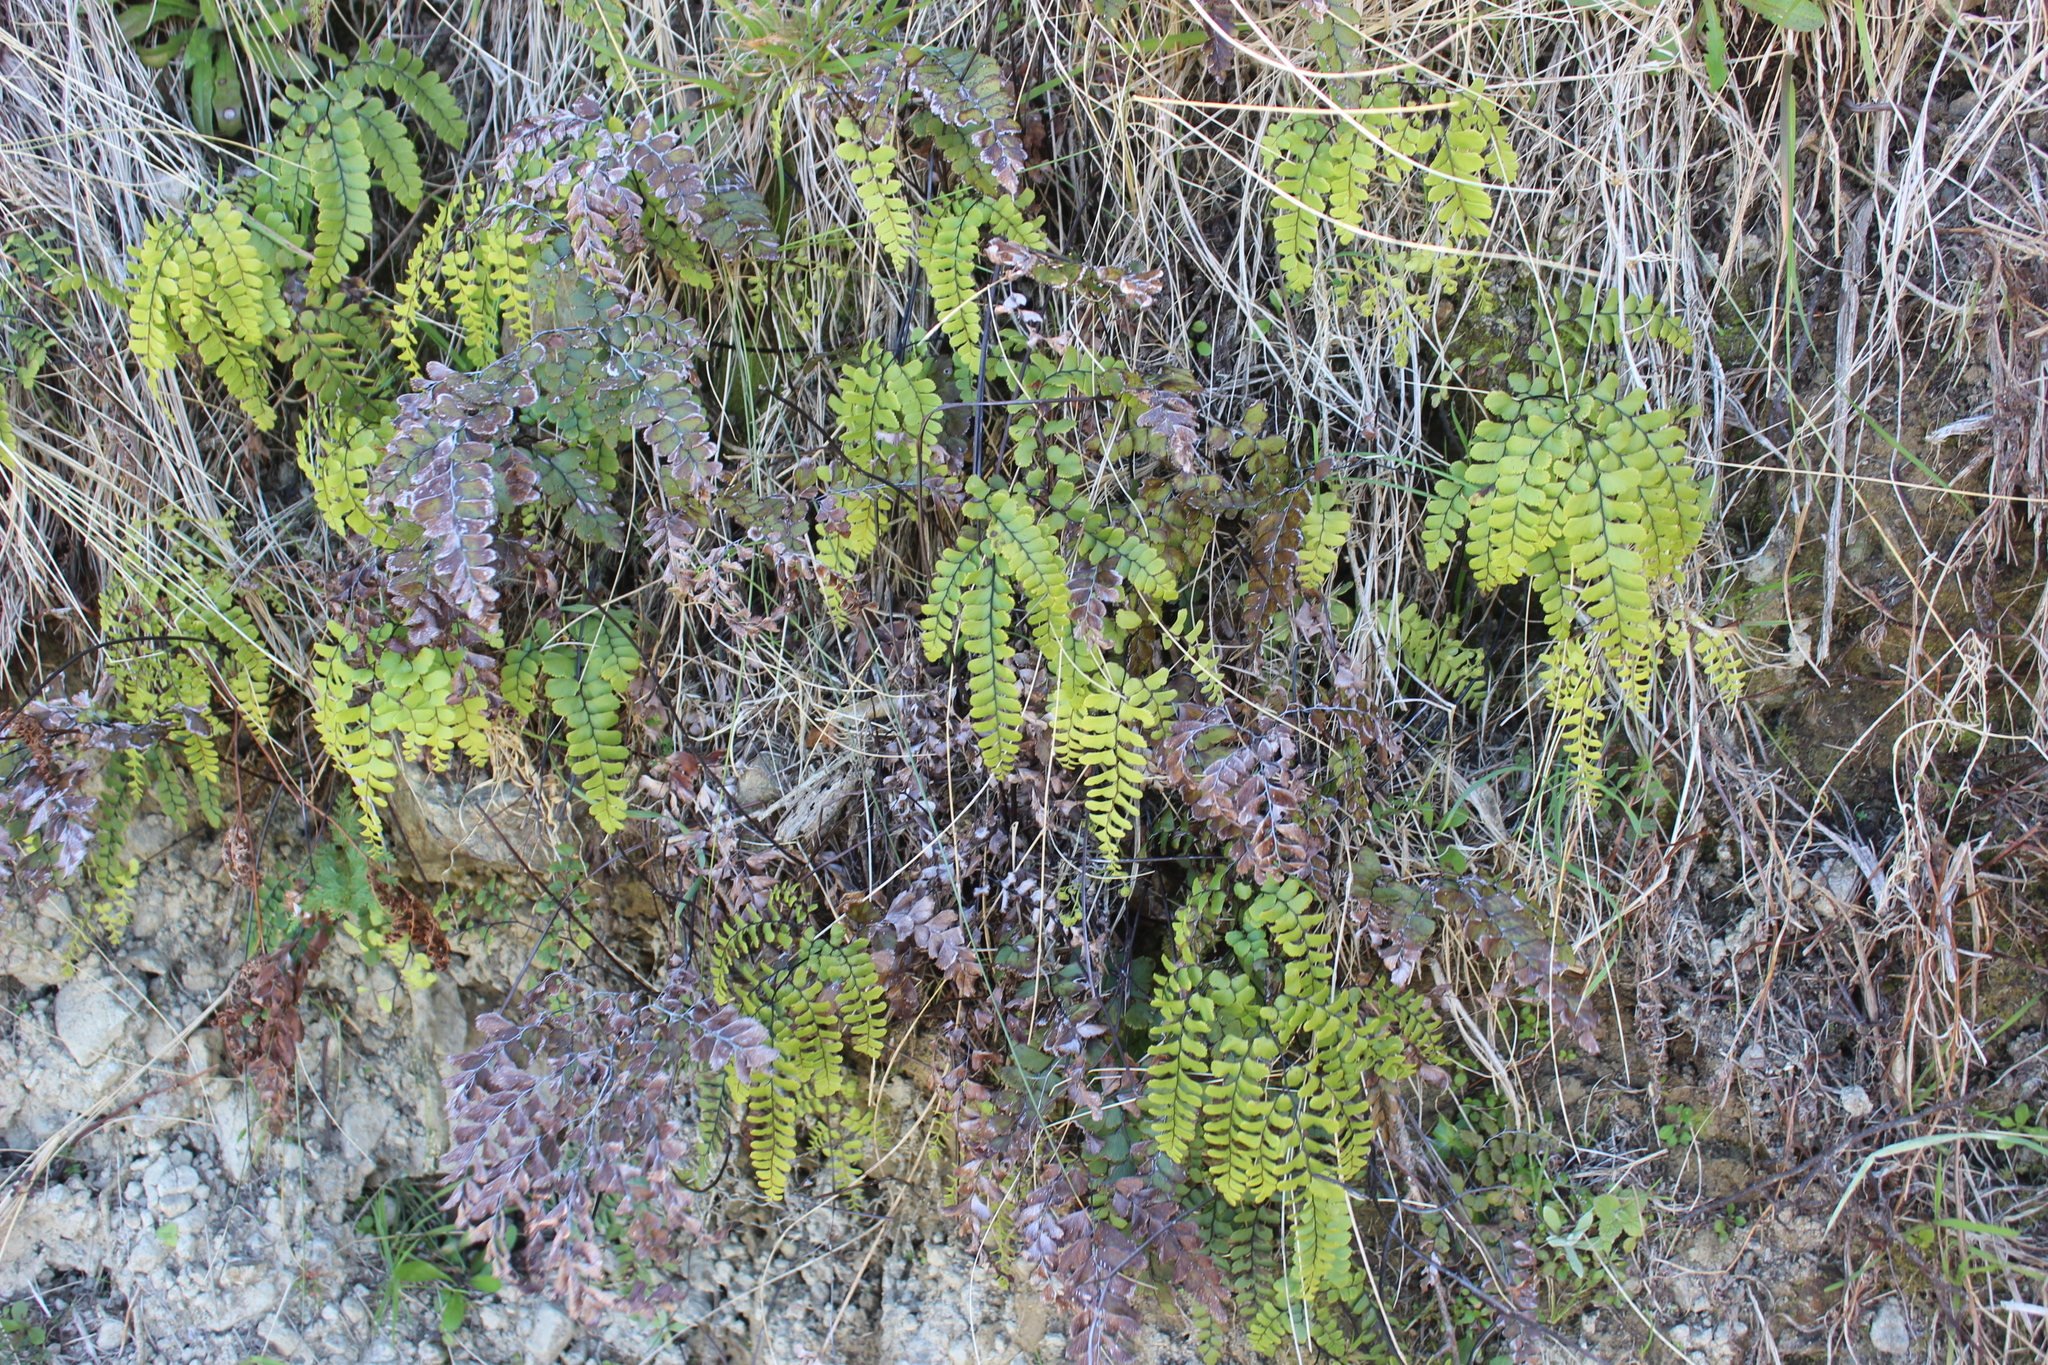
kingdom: Plantae
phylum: Tracheophyta
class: Polypodiopsida
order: Polypodiales
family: Pteridaceae
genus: Adiantum
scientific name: Adiantum cunninghamii
